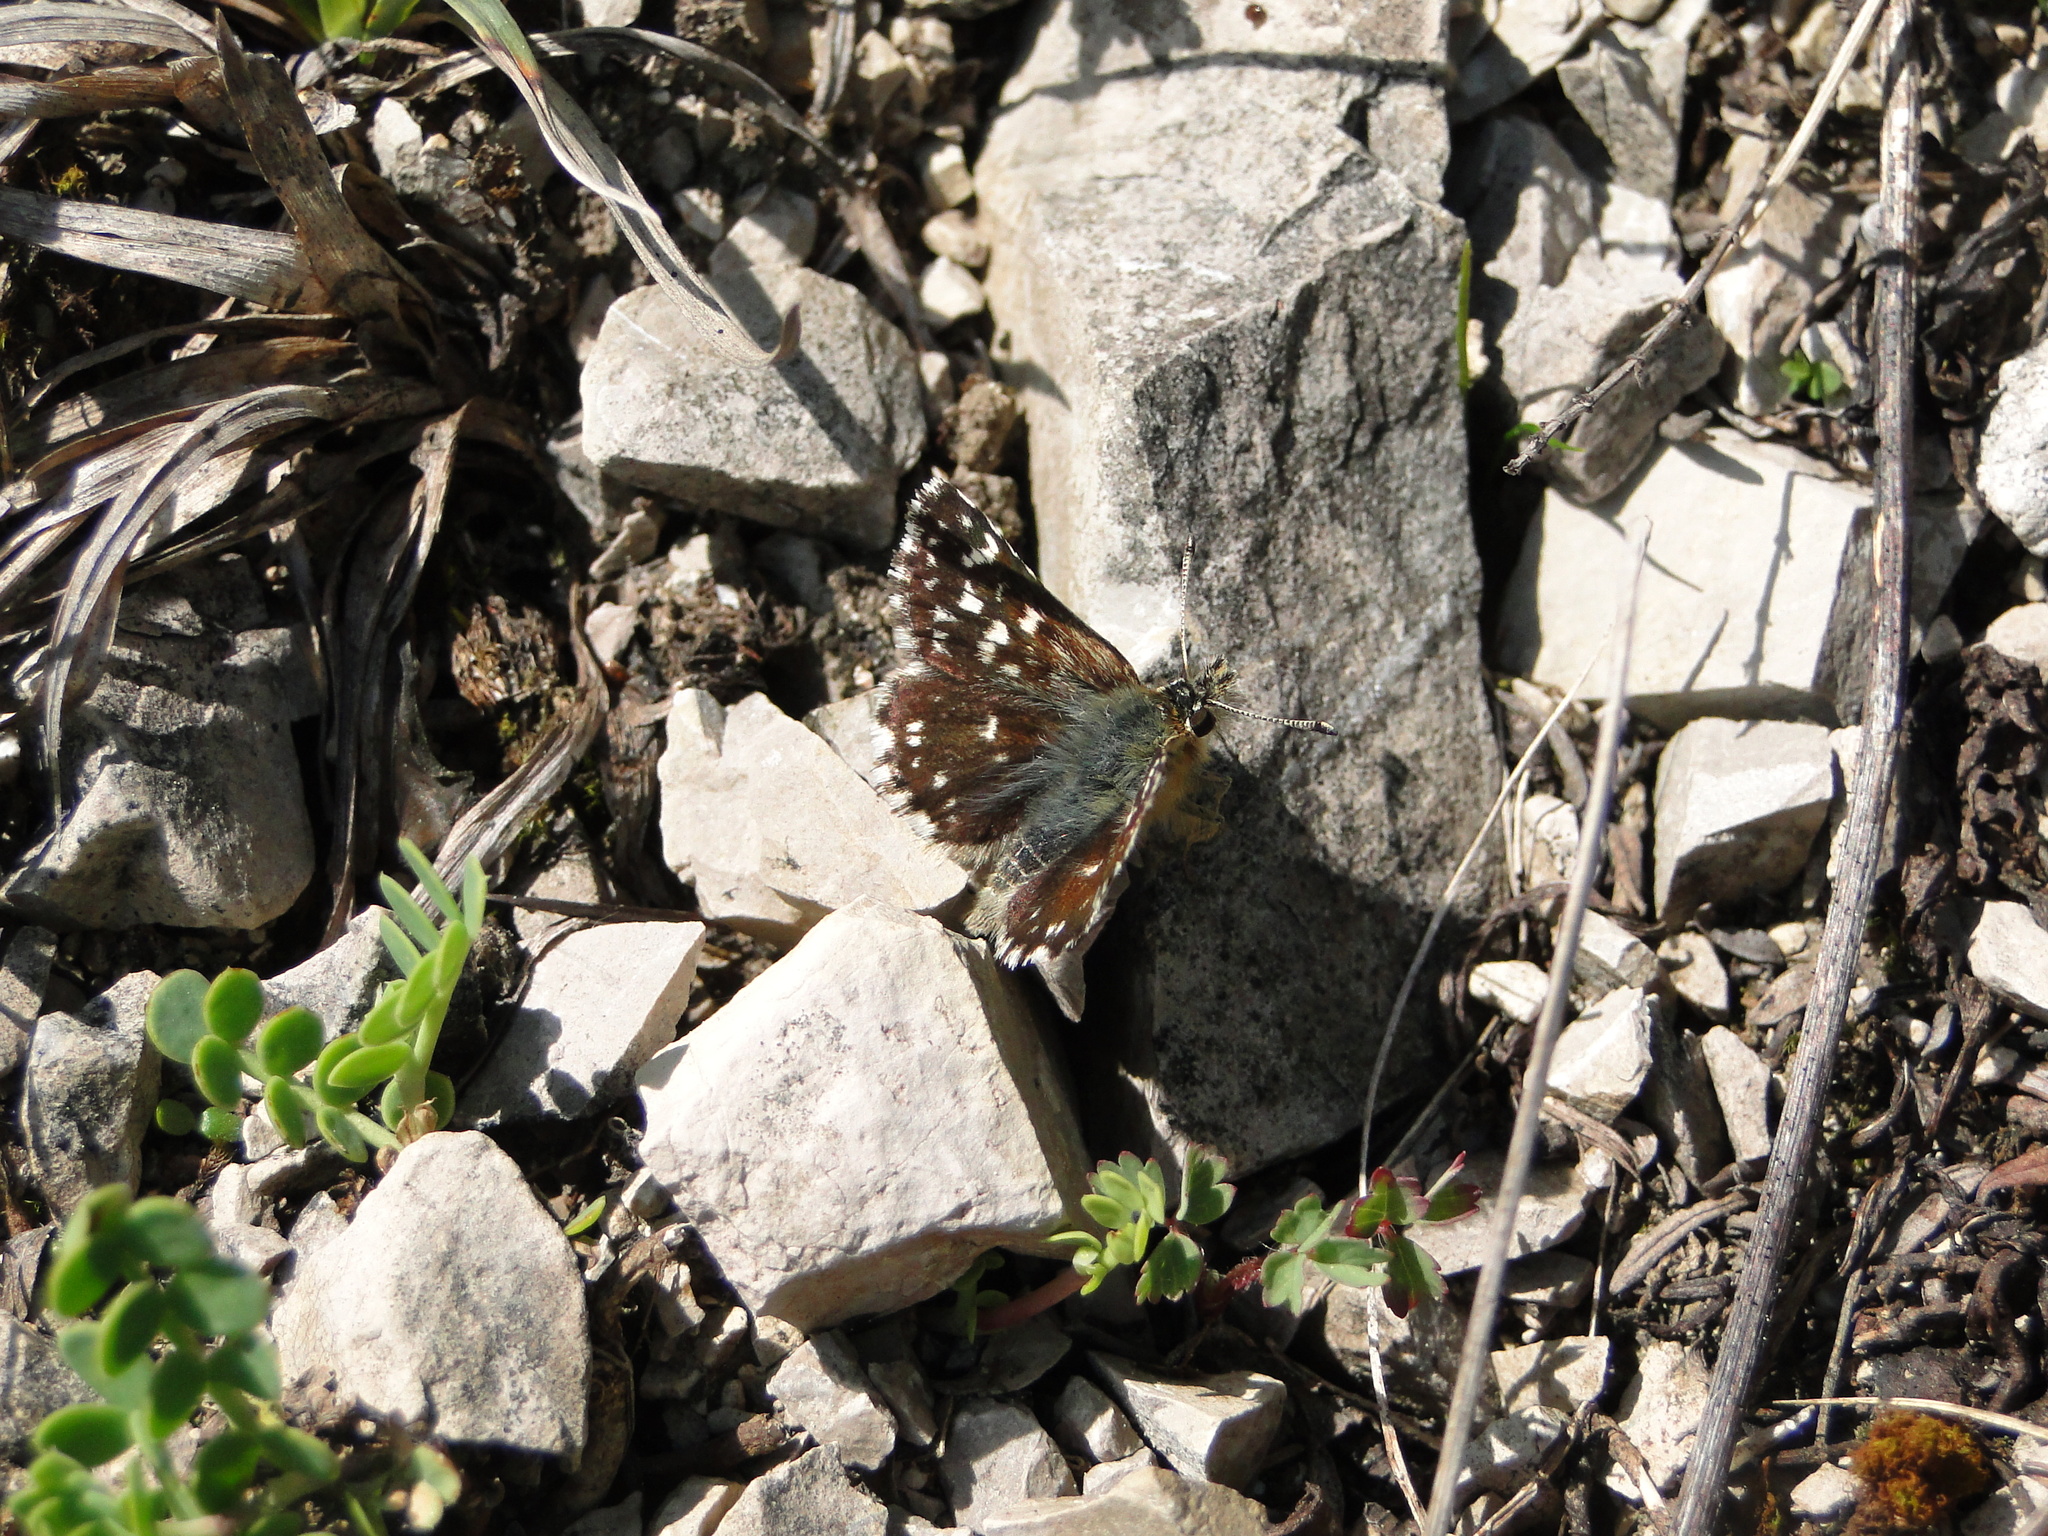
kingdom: Animalia
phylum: Arthropoda
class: Insecta
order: Lepidoptera
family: Hesperiidae
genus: Spialia
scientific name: Spialia sertorius
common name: Red underwing skipper
